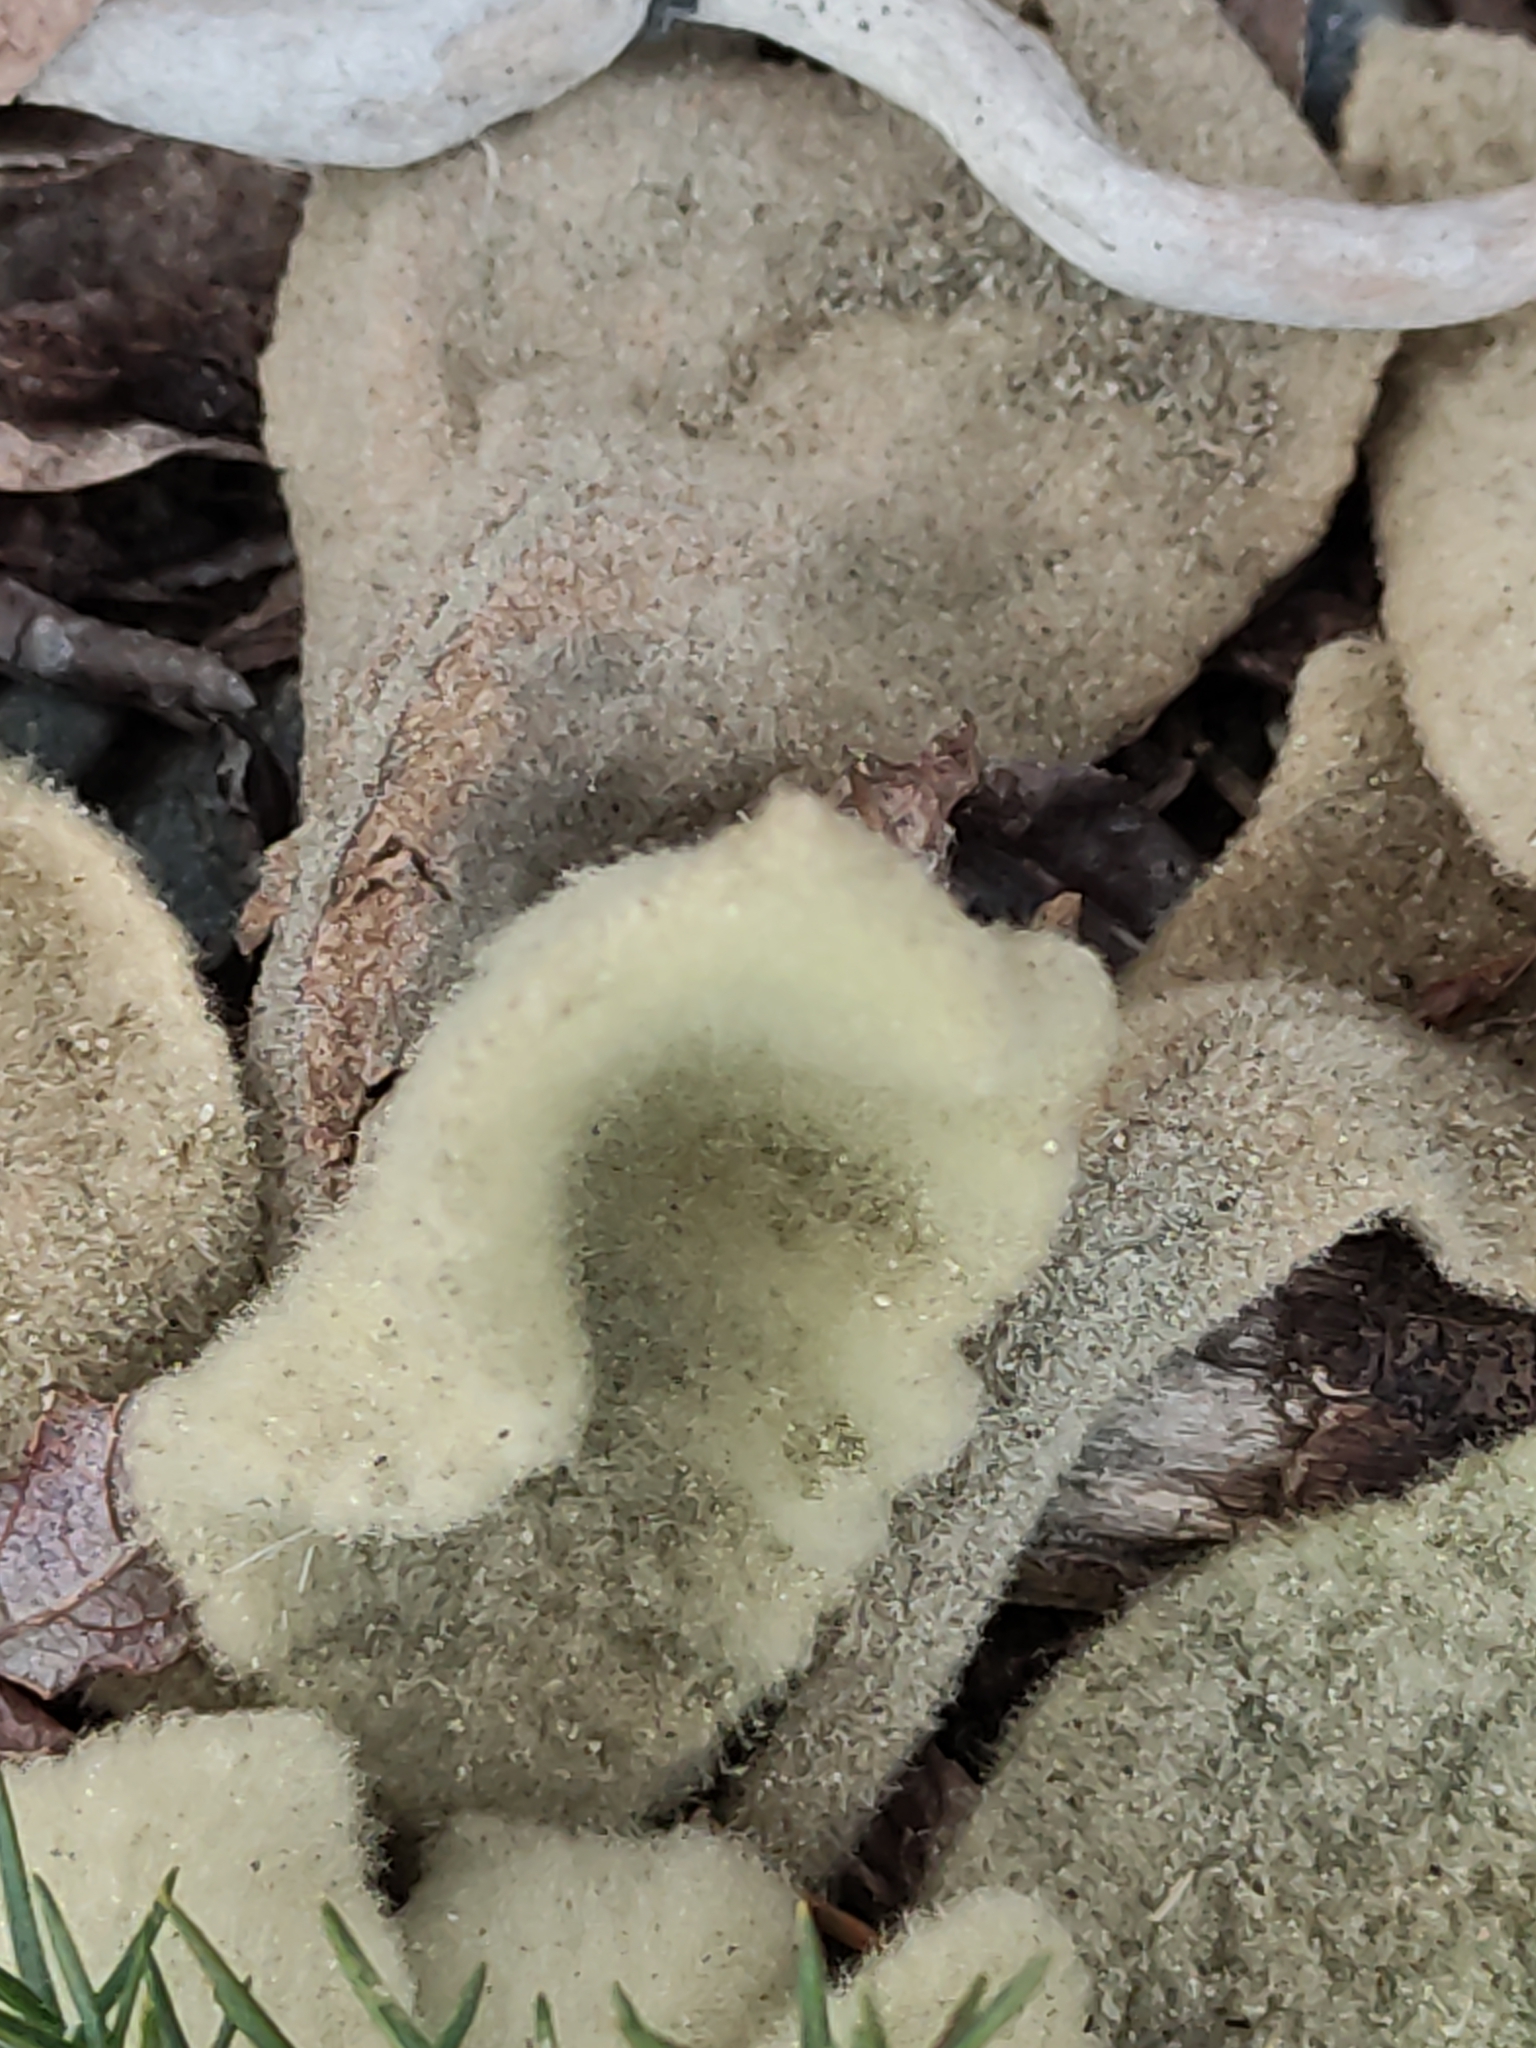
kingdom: Plantae
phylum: Tracheophyta
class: Magnoliopsida
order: Lamiales
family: Scrophulariaceae
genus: Verbascum
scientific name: Verbascum thapsus
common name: Common mullein
